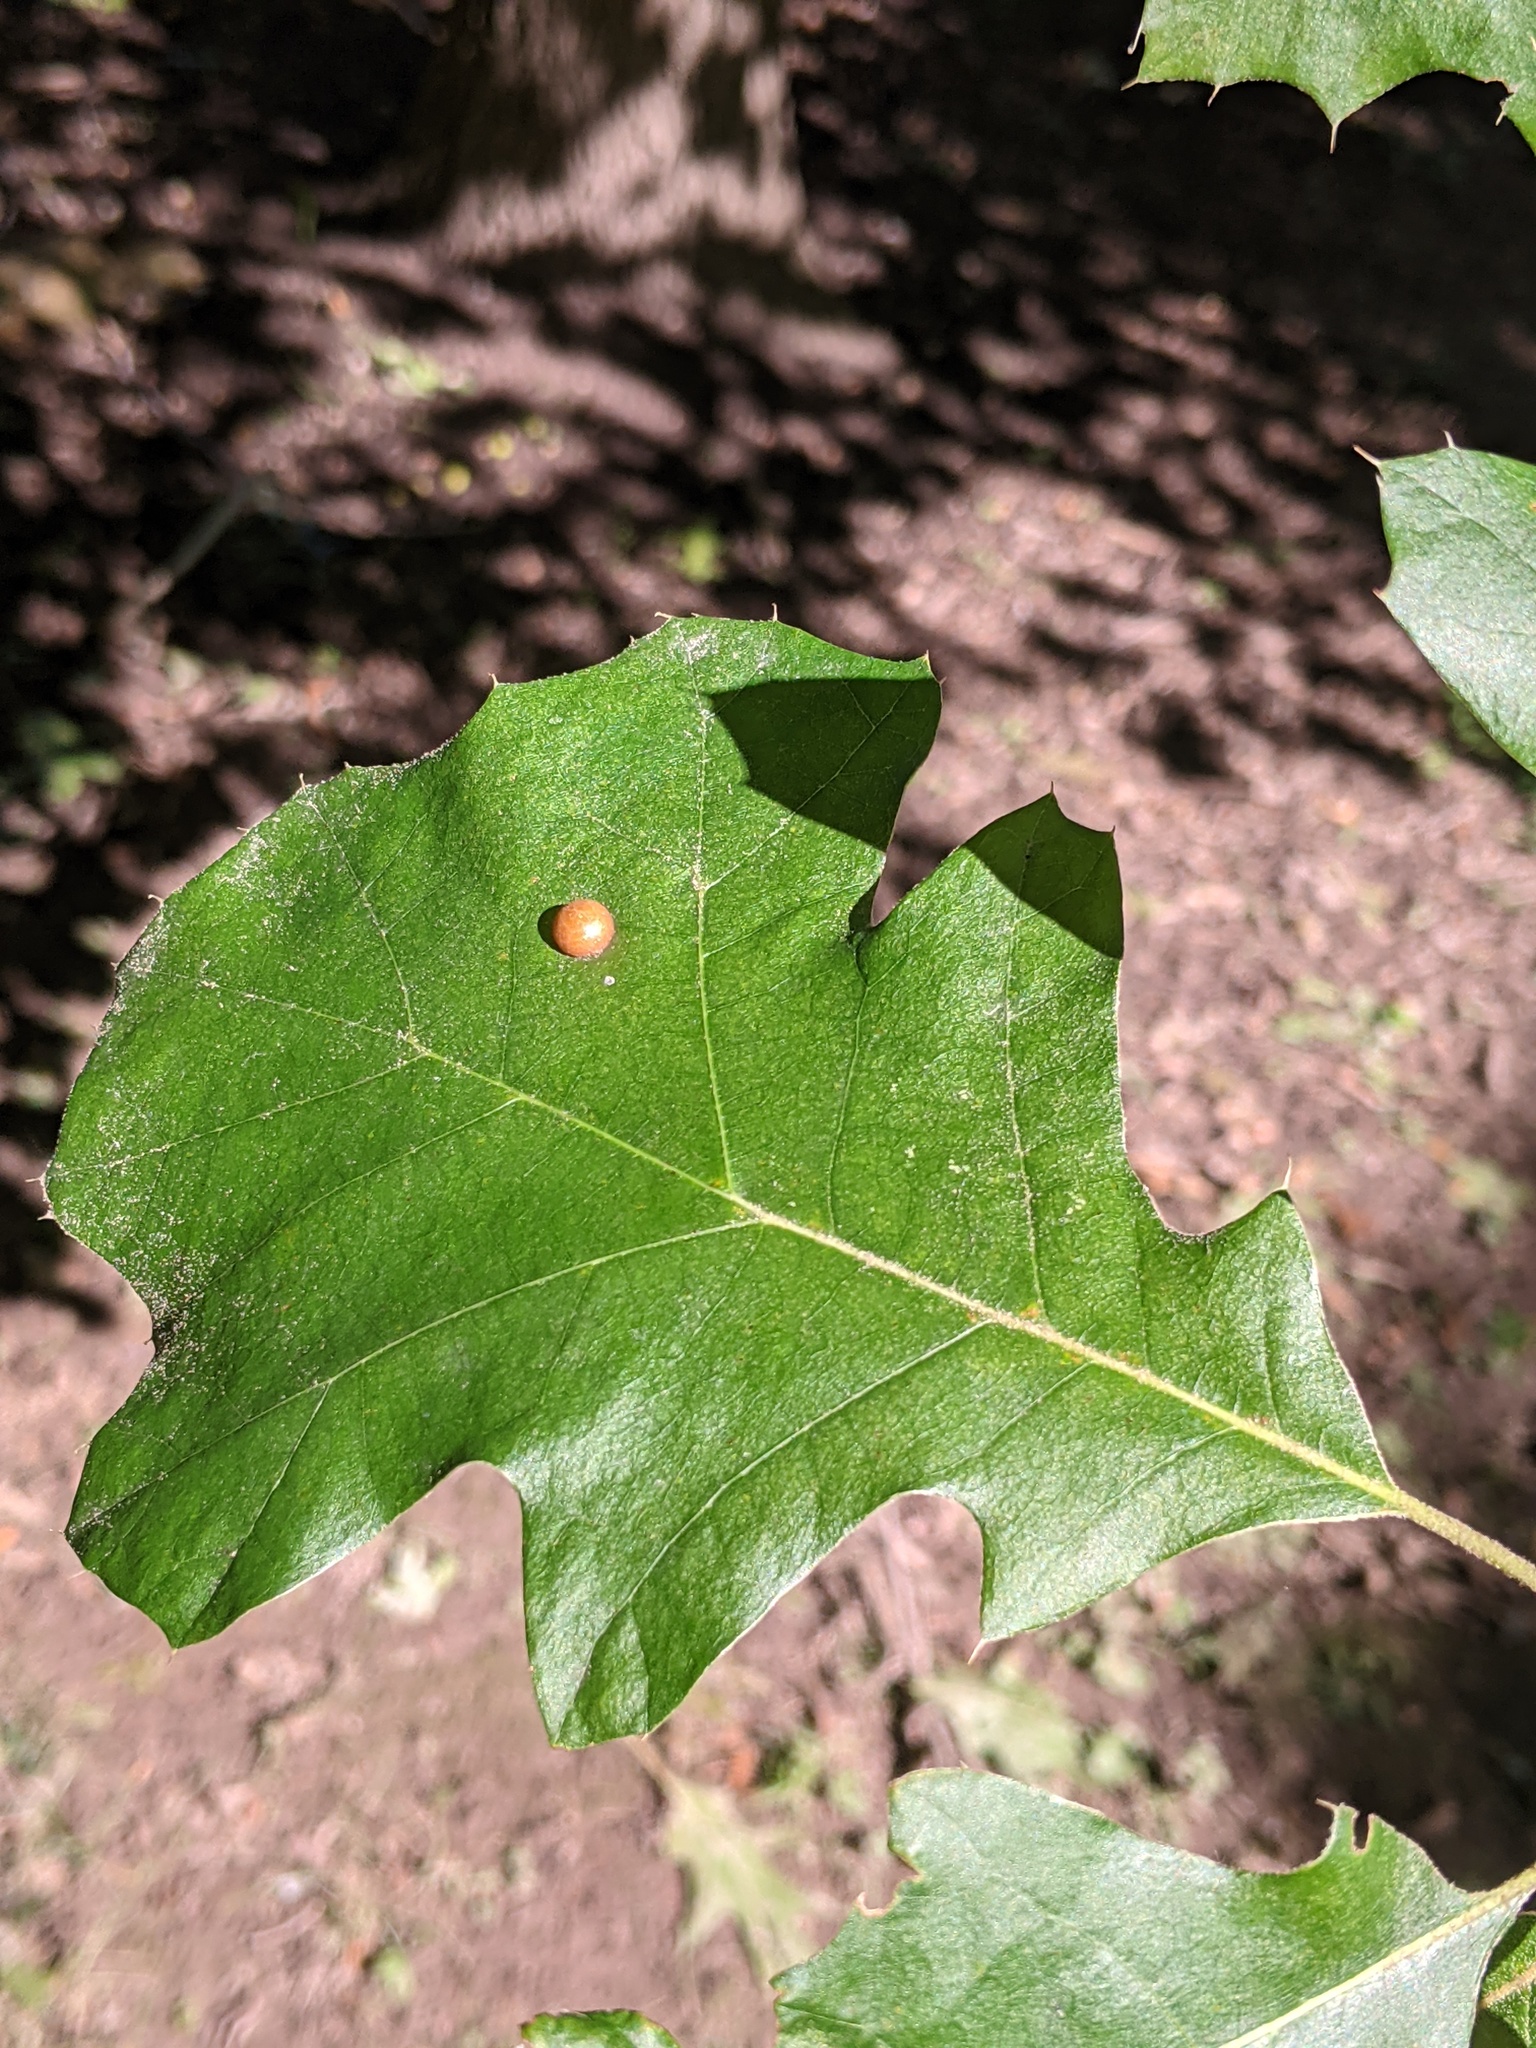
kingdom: Animalia
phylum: Arthropoda
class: Insecta
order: Diptera
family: Cecidomyiidae
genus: Polystepha
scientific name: Polystepha pilulae
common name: Oak leaf gall midge
